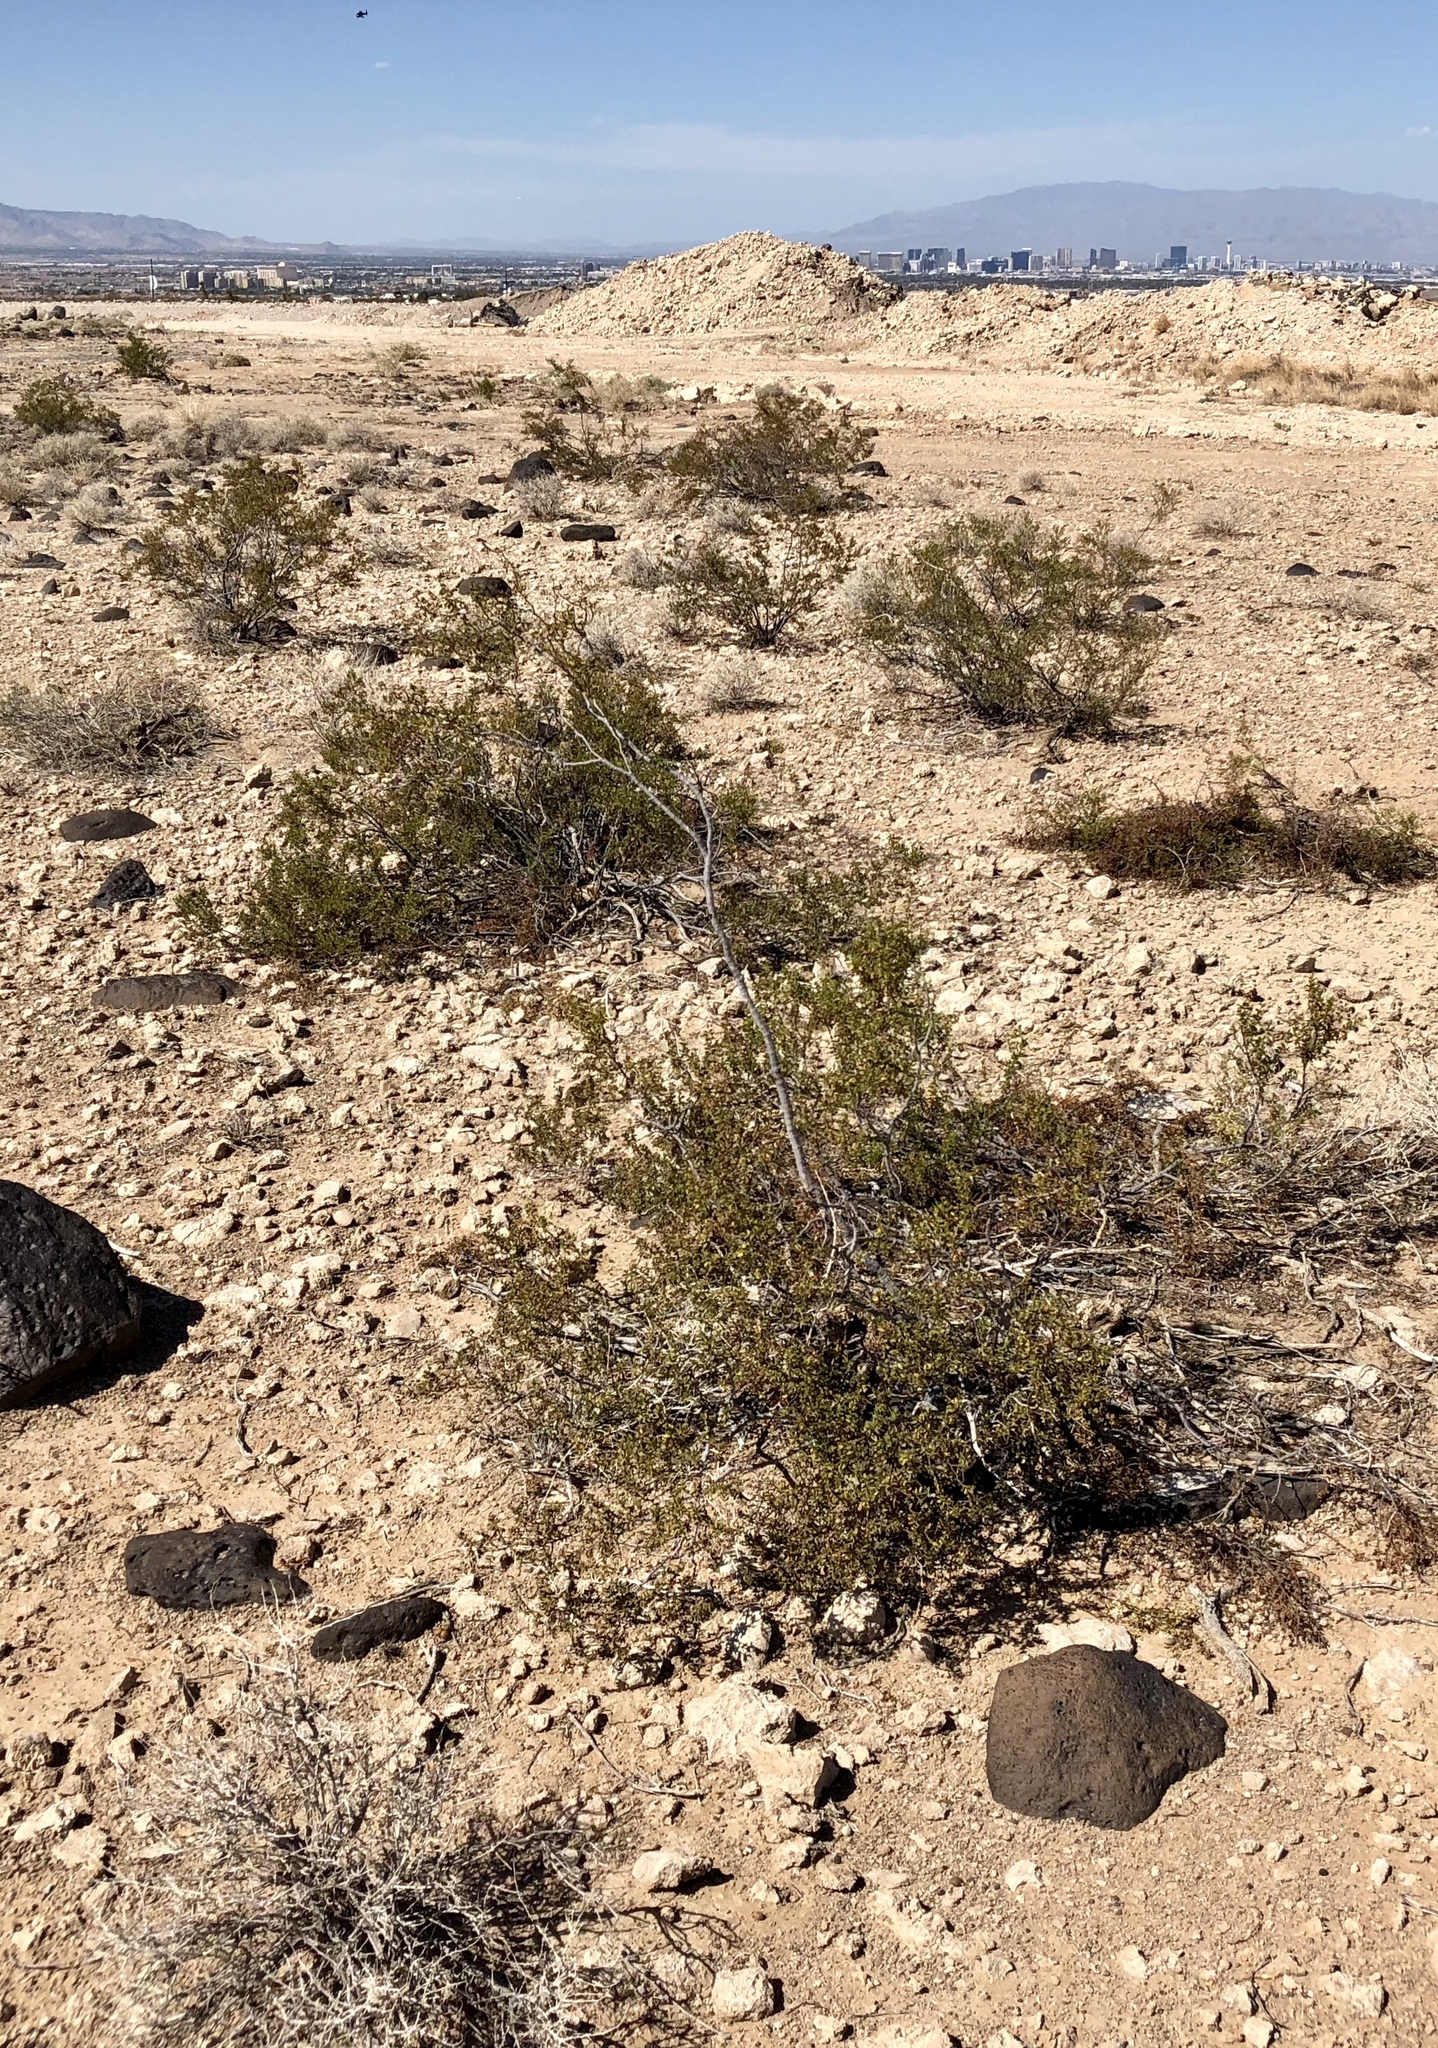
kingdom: Plantae
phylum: Tracheophyta
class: Magnoliopsida
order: Zygophyllales
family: Zygophyllaceae
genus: Larrea
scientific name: Larrea tridentata
